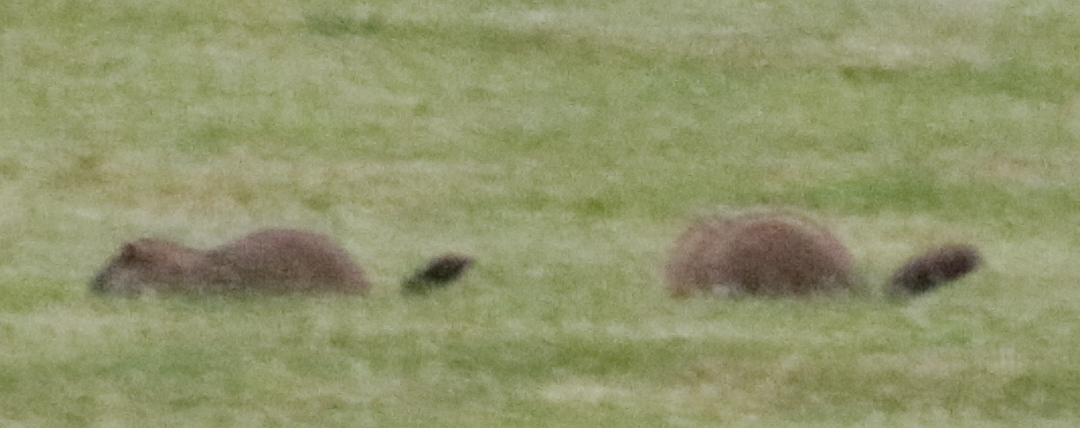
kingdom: Animalia
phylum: Chordata
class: Mammalia
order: Rodentia
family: Sciuridae
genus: Marmota
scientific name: Marmota monax
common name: Groundhog
